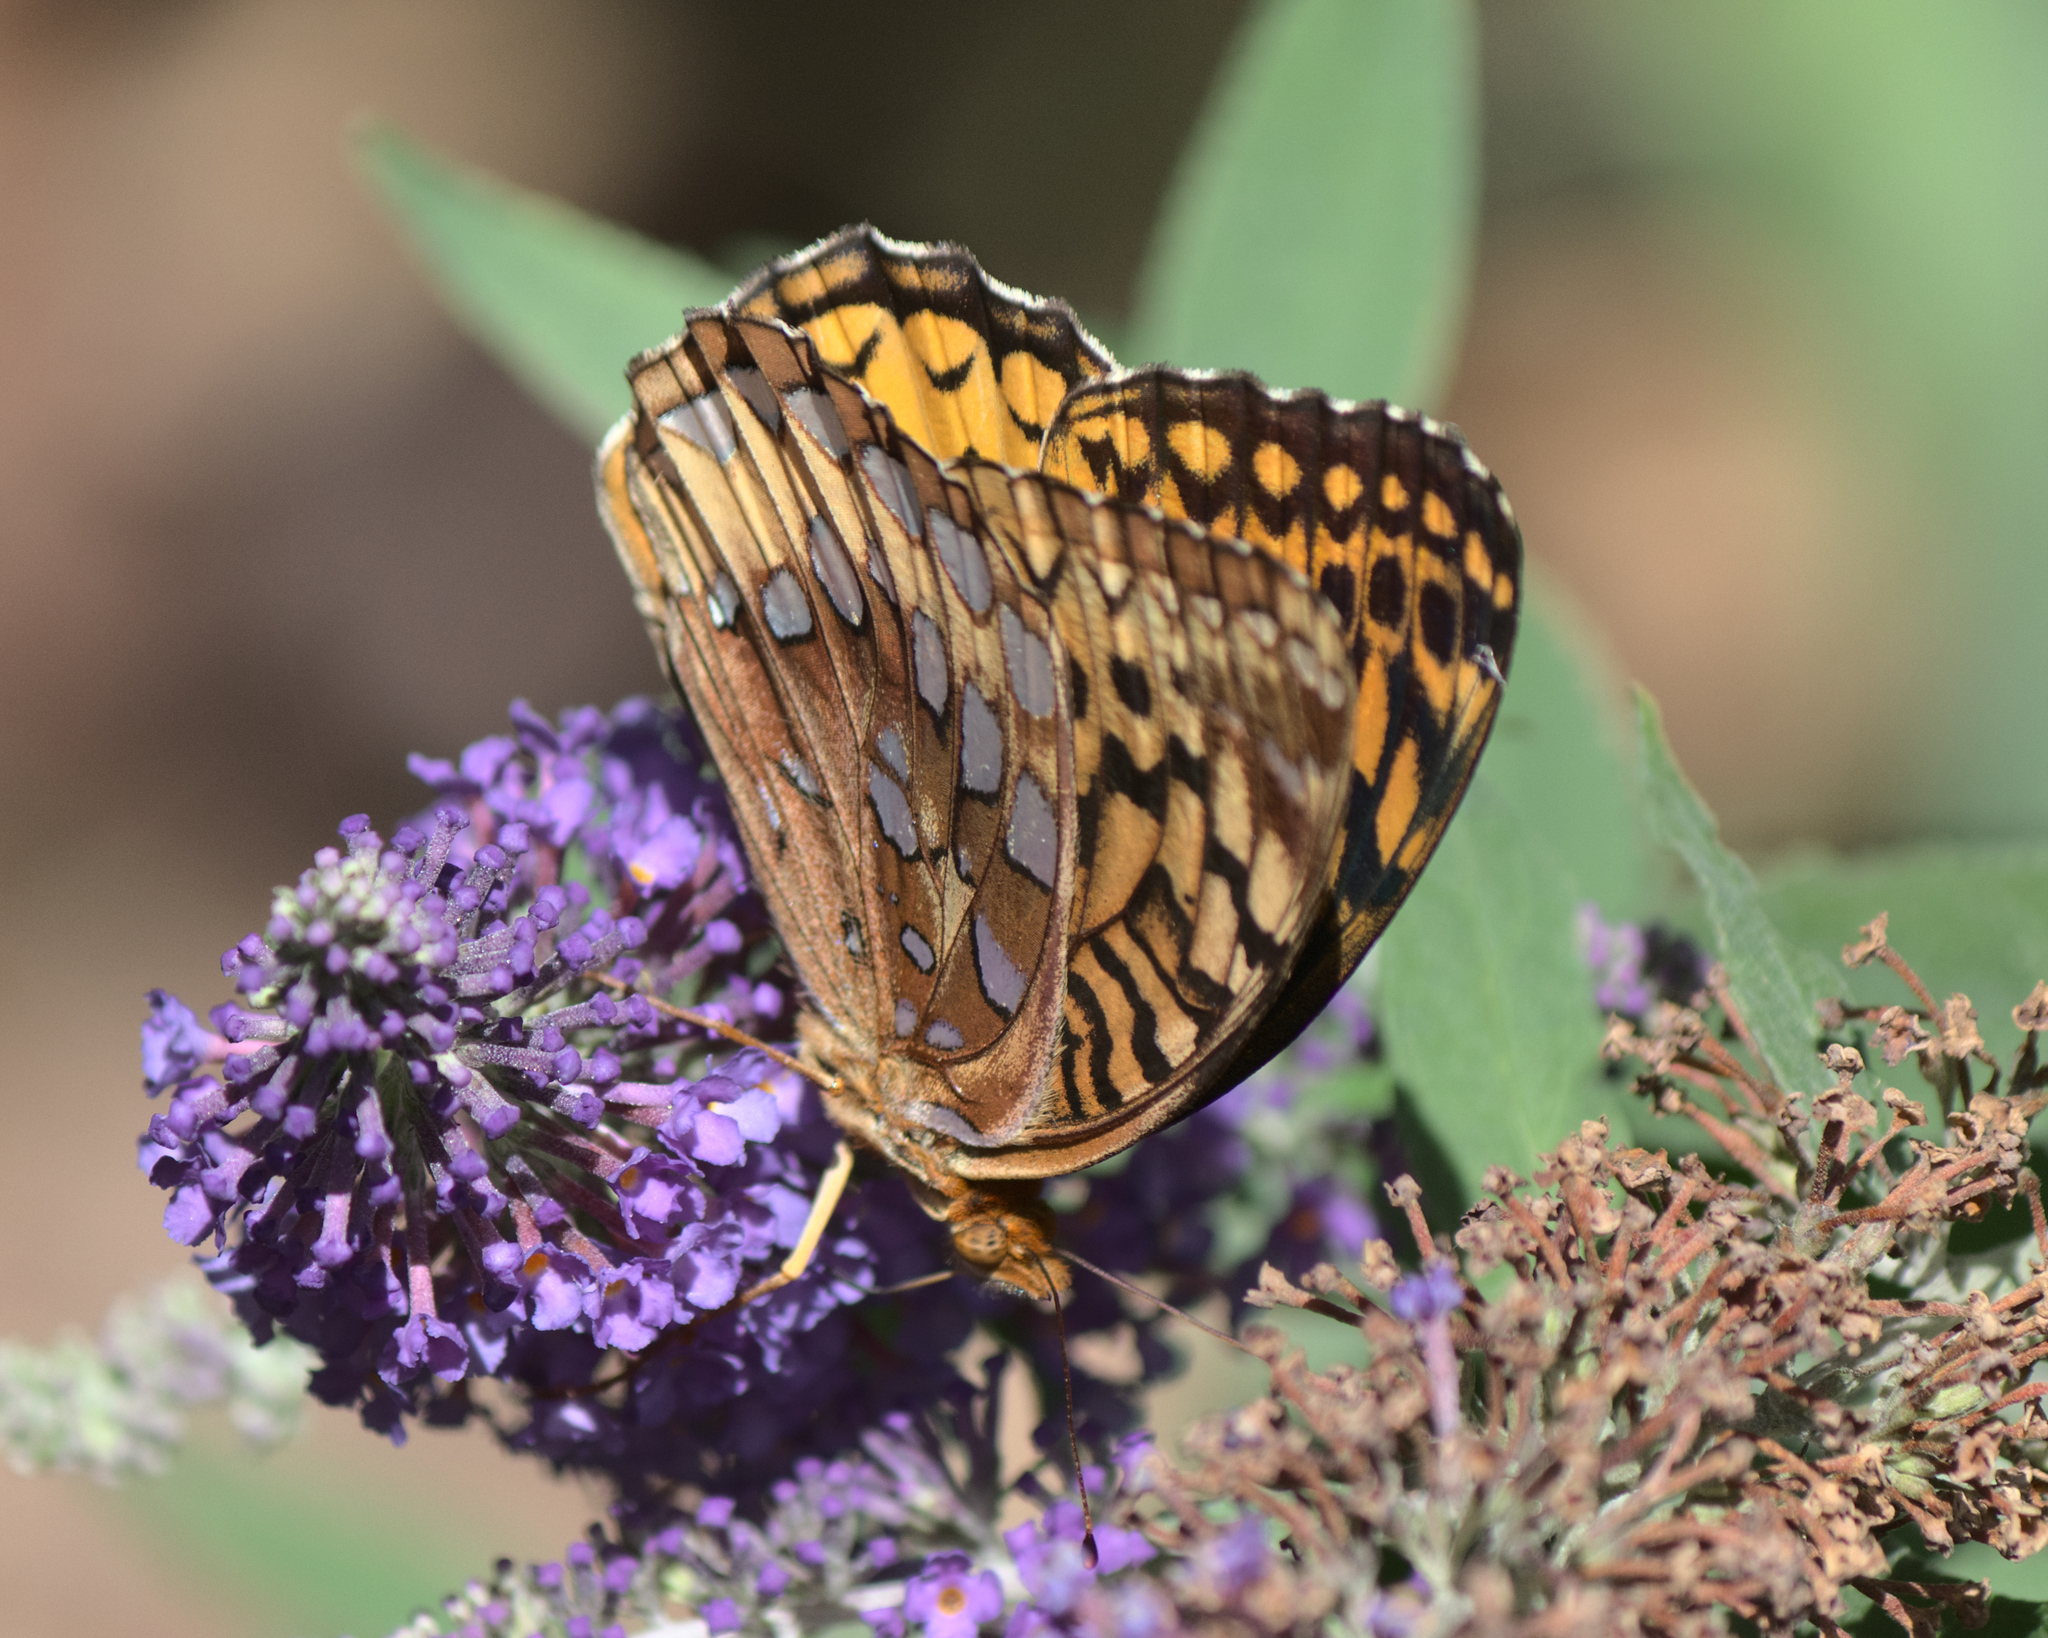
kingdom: Animalia
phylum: Arthropoda
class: Insecta
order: Lepidoptera
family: Nymphalidae
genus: Speyeria
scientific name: Speyeria cybele
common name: Great spangled fritillary
